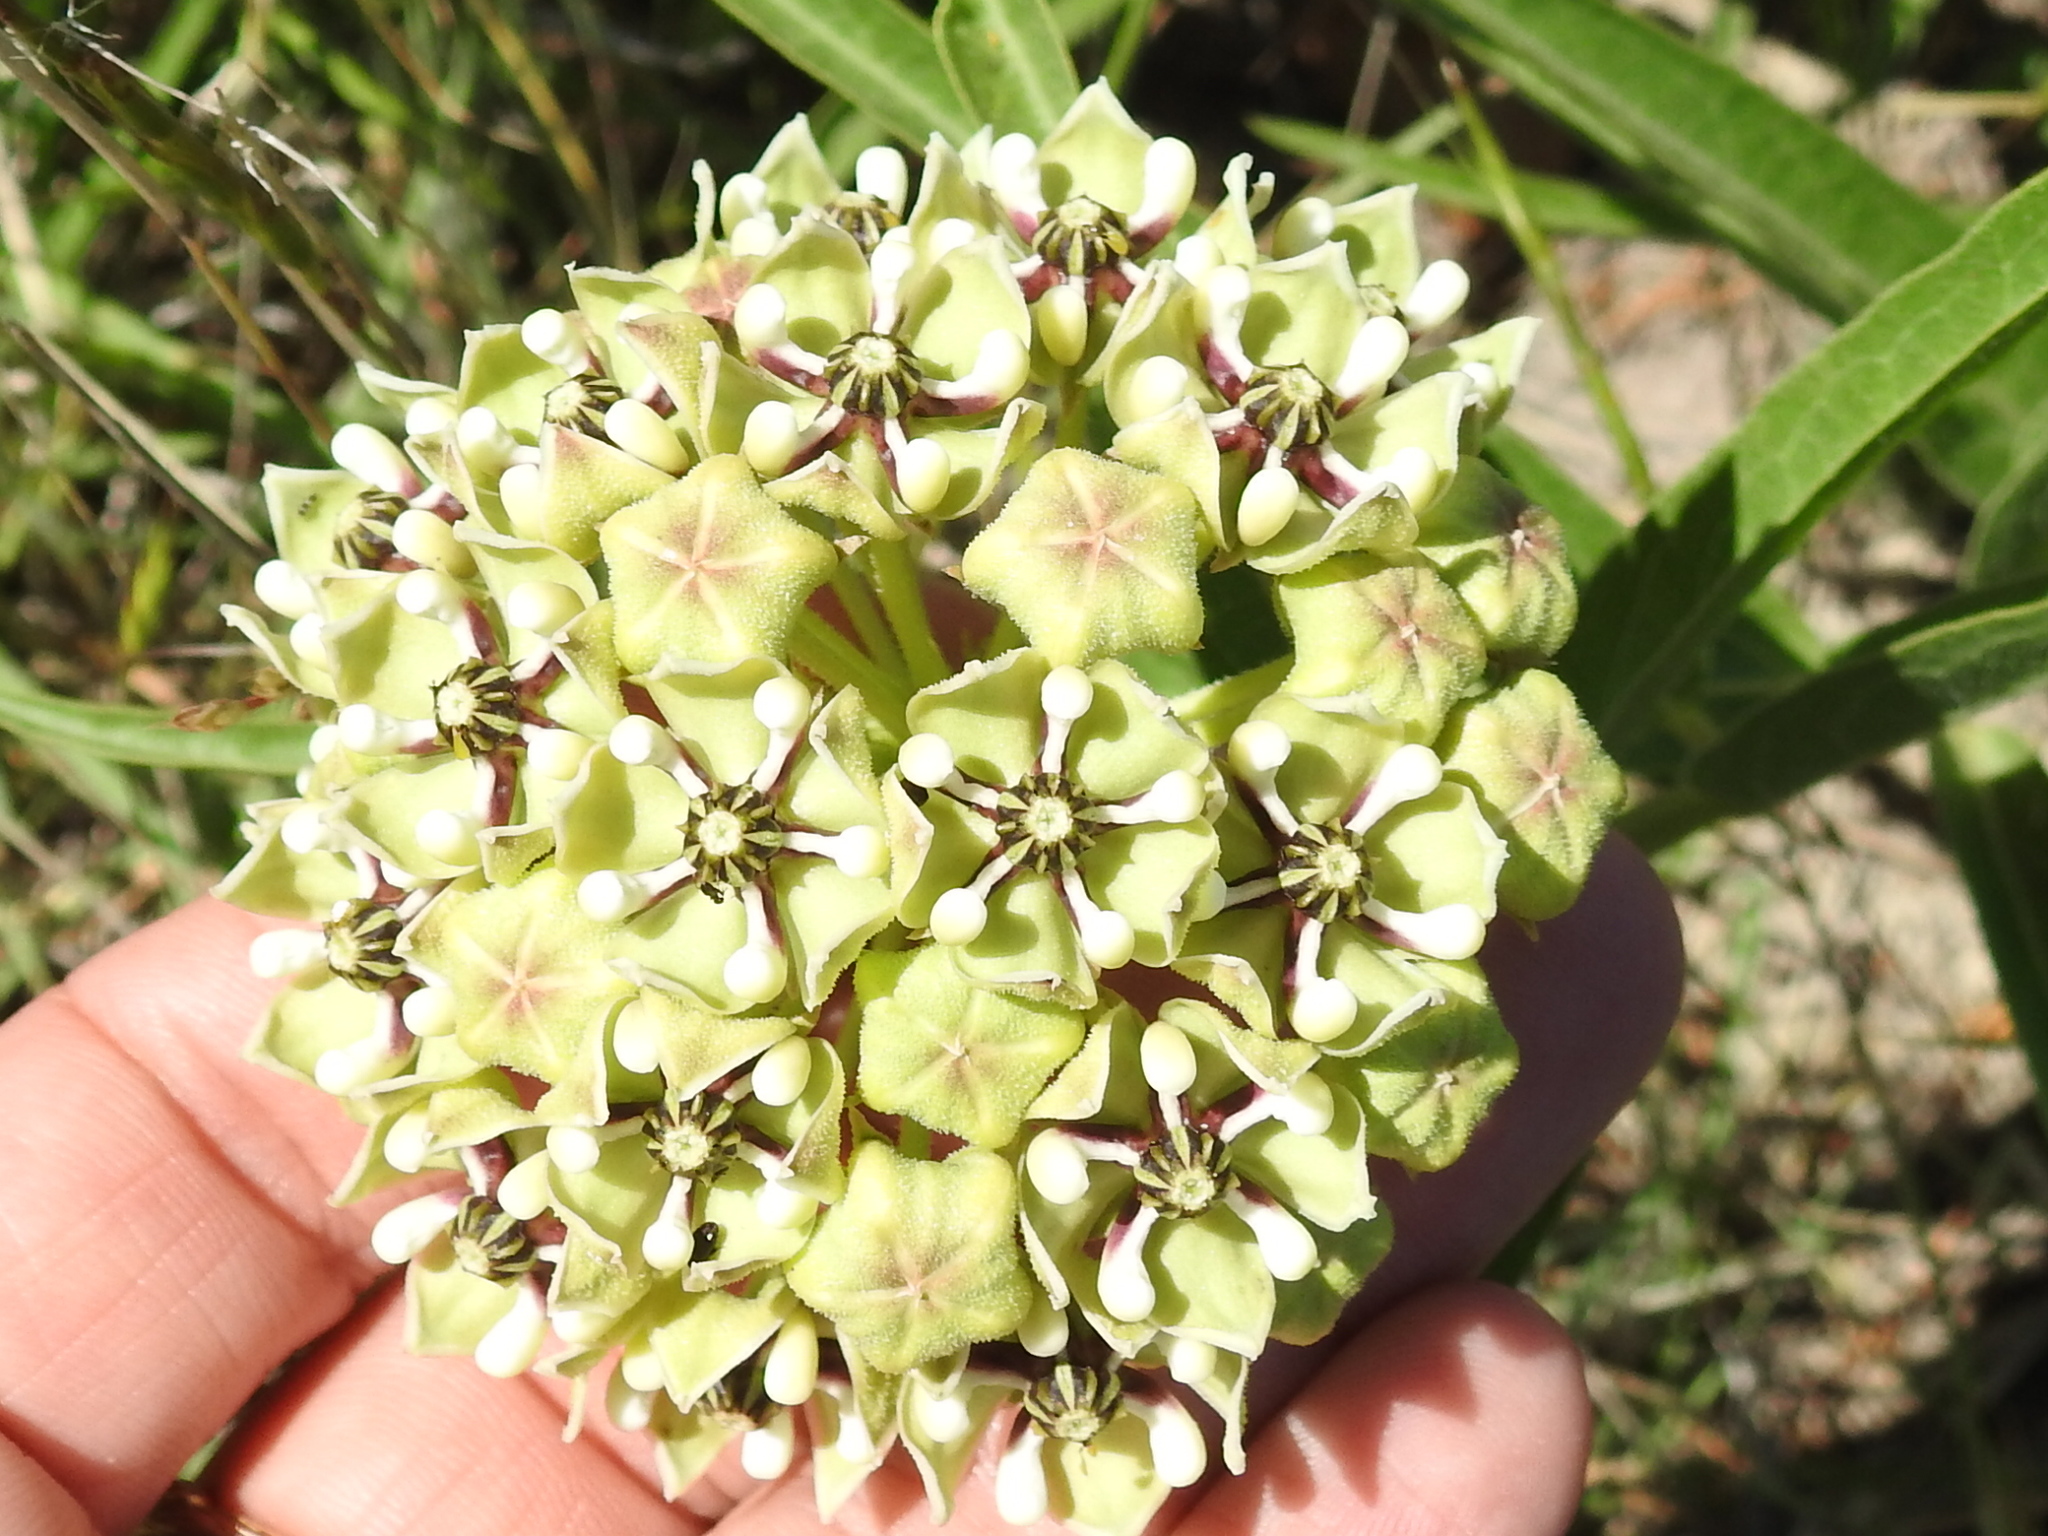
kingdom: Plantae
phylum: Tracheophyta
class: Magnoliopsida
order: Gentianales
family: Apocynaceae
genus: Asclepias
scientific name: Asclepias asperula
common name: Antelope horns
